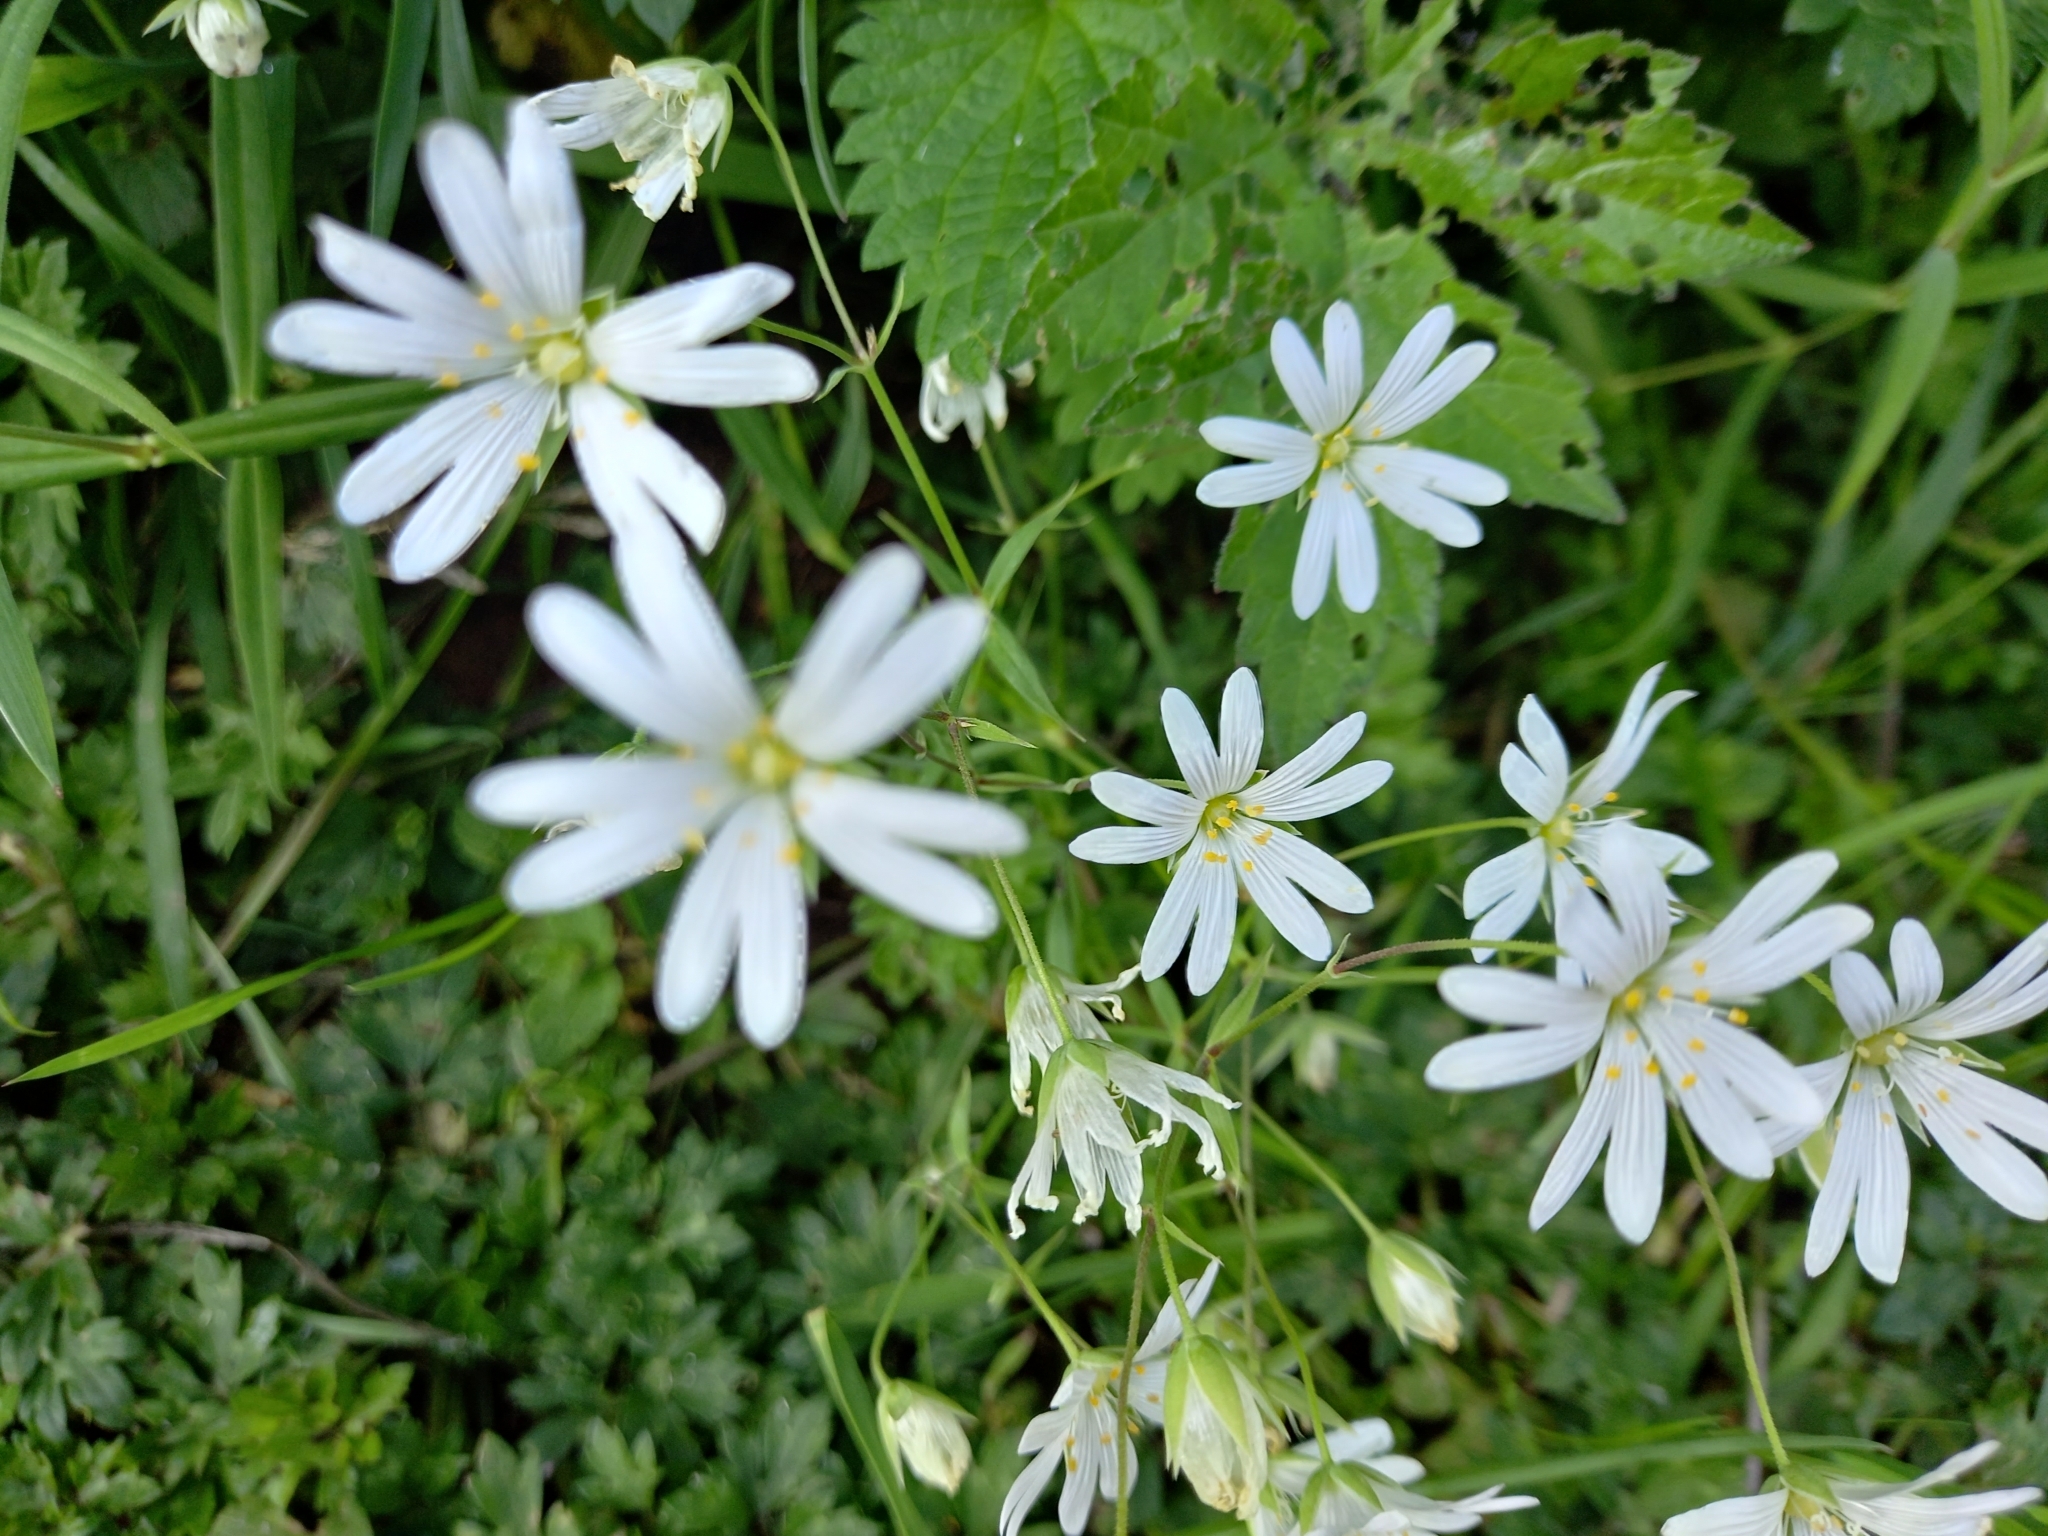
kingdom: Plantae
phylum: Tracheophyta
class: Magnoliopsida
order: Caryophyllales
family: Caryophyllaceae
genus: Rabelera
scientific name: Rabelera holostea
